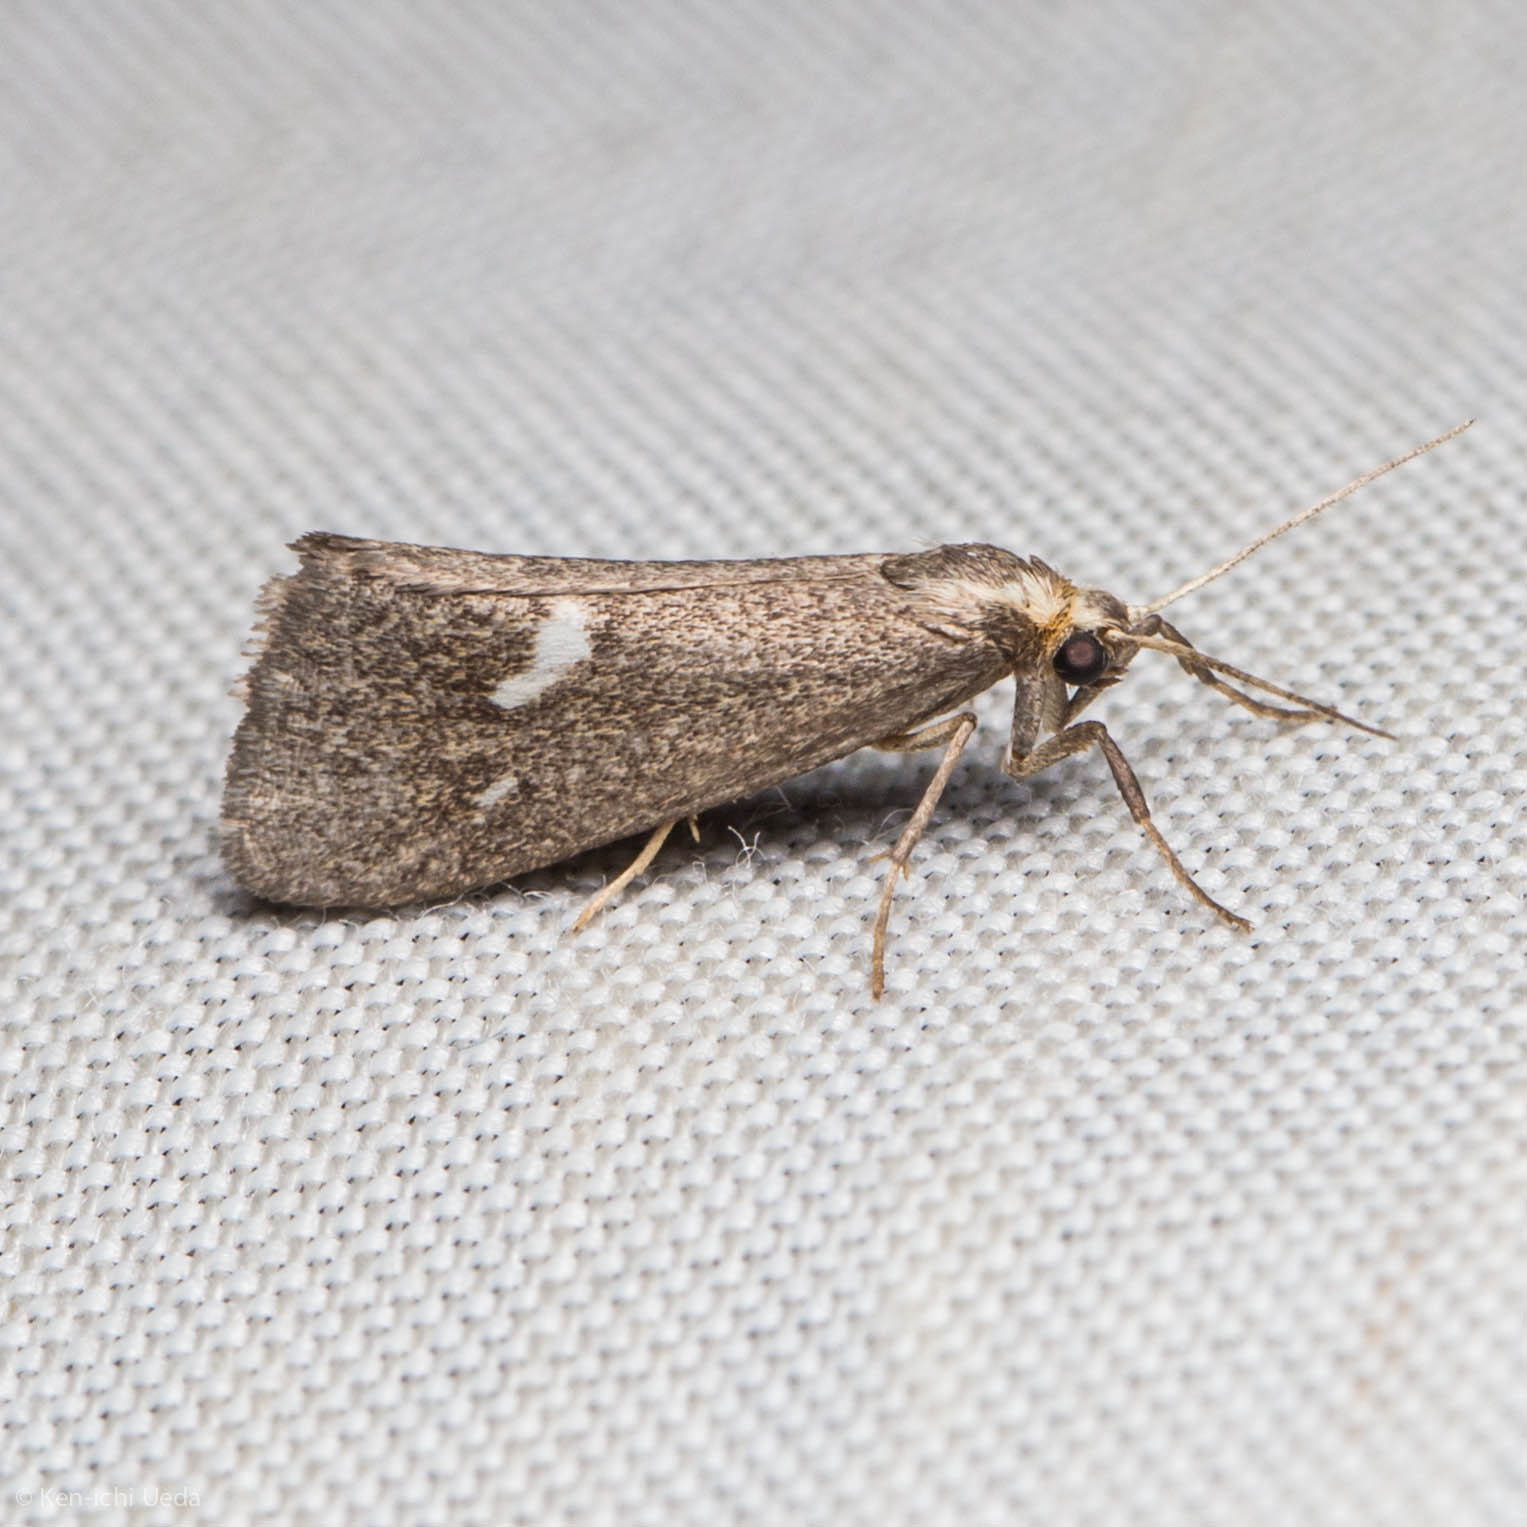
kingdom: Animalia
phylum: Arthropoda
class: Insecta
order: Lepidoptera
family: Erebidae
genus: Cisthene
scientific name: Cisthene liberomacula
